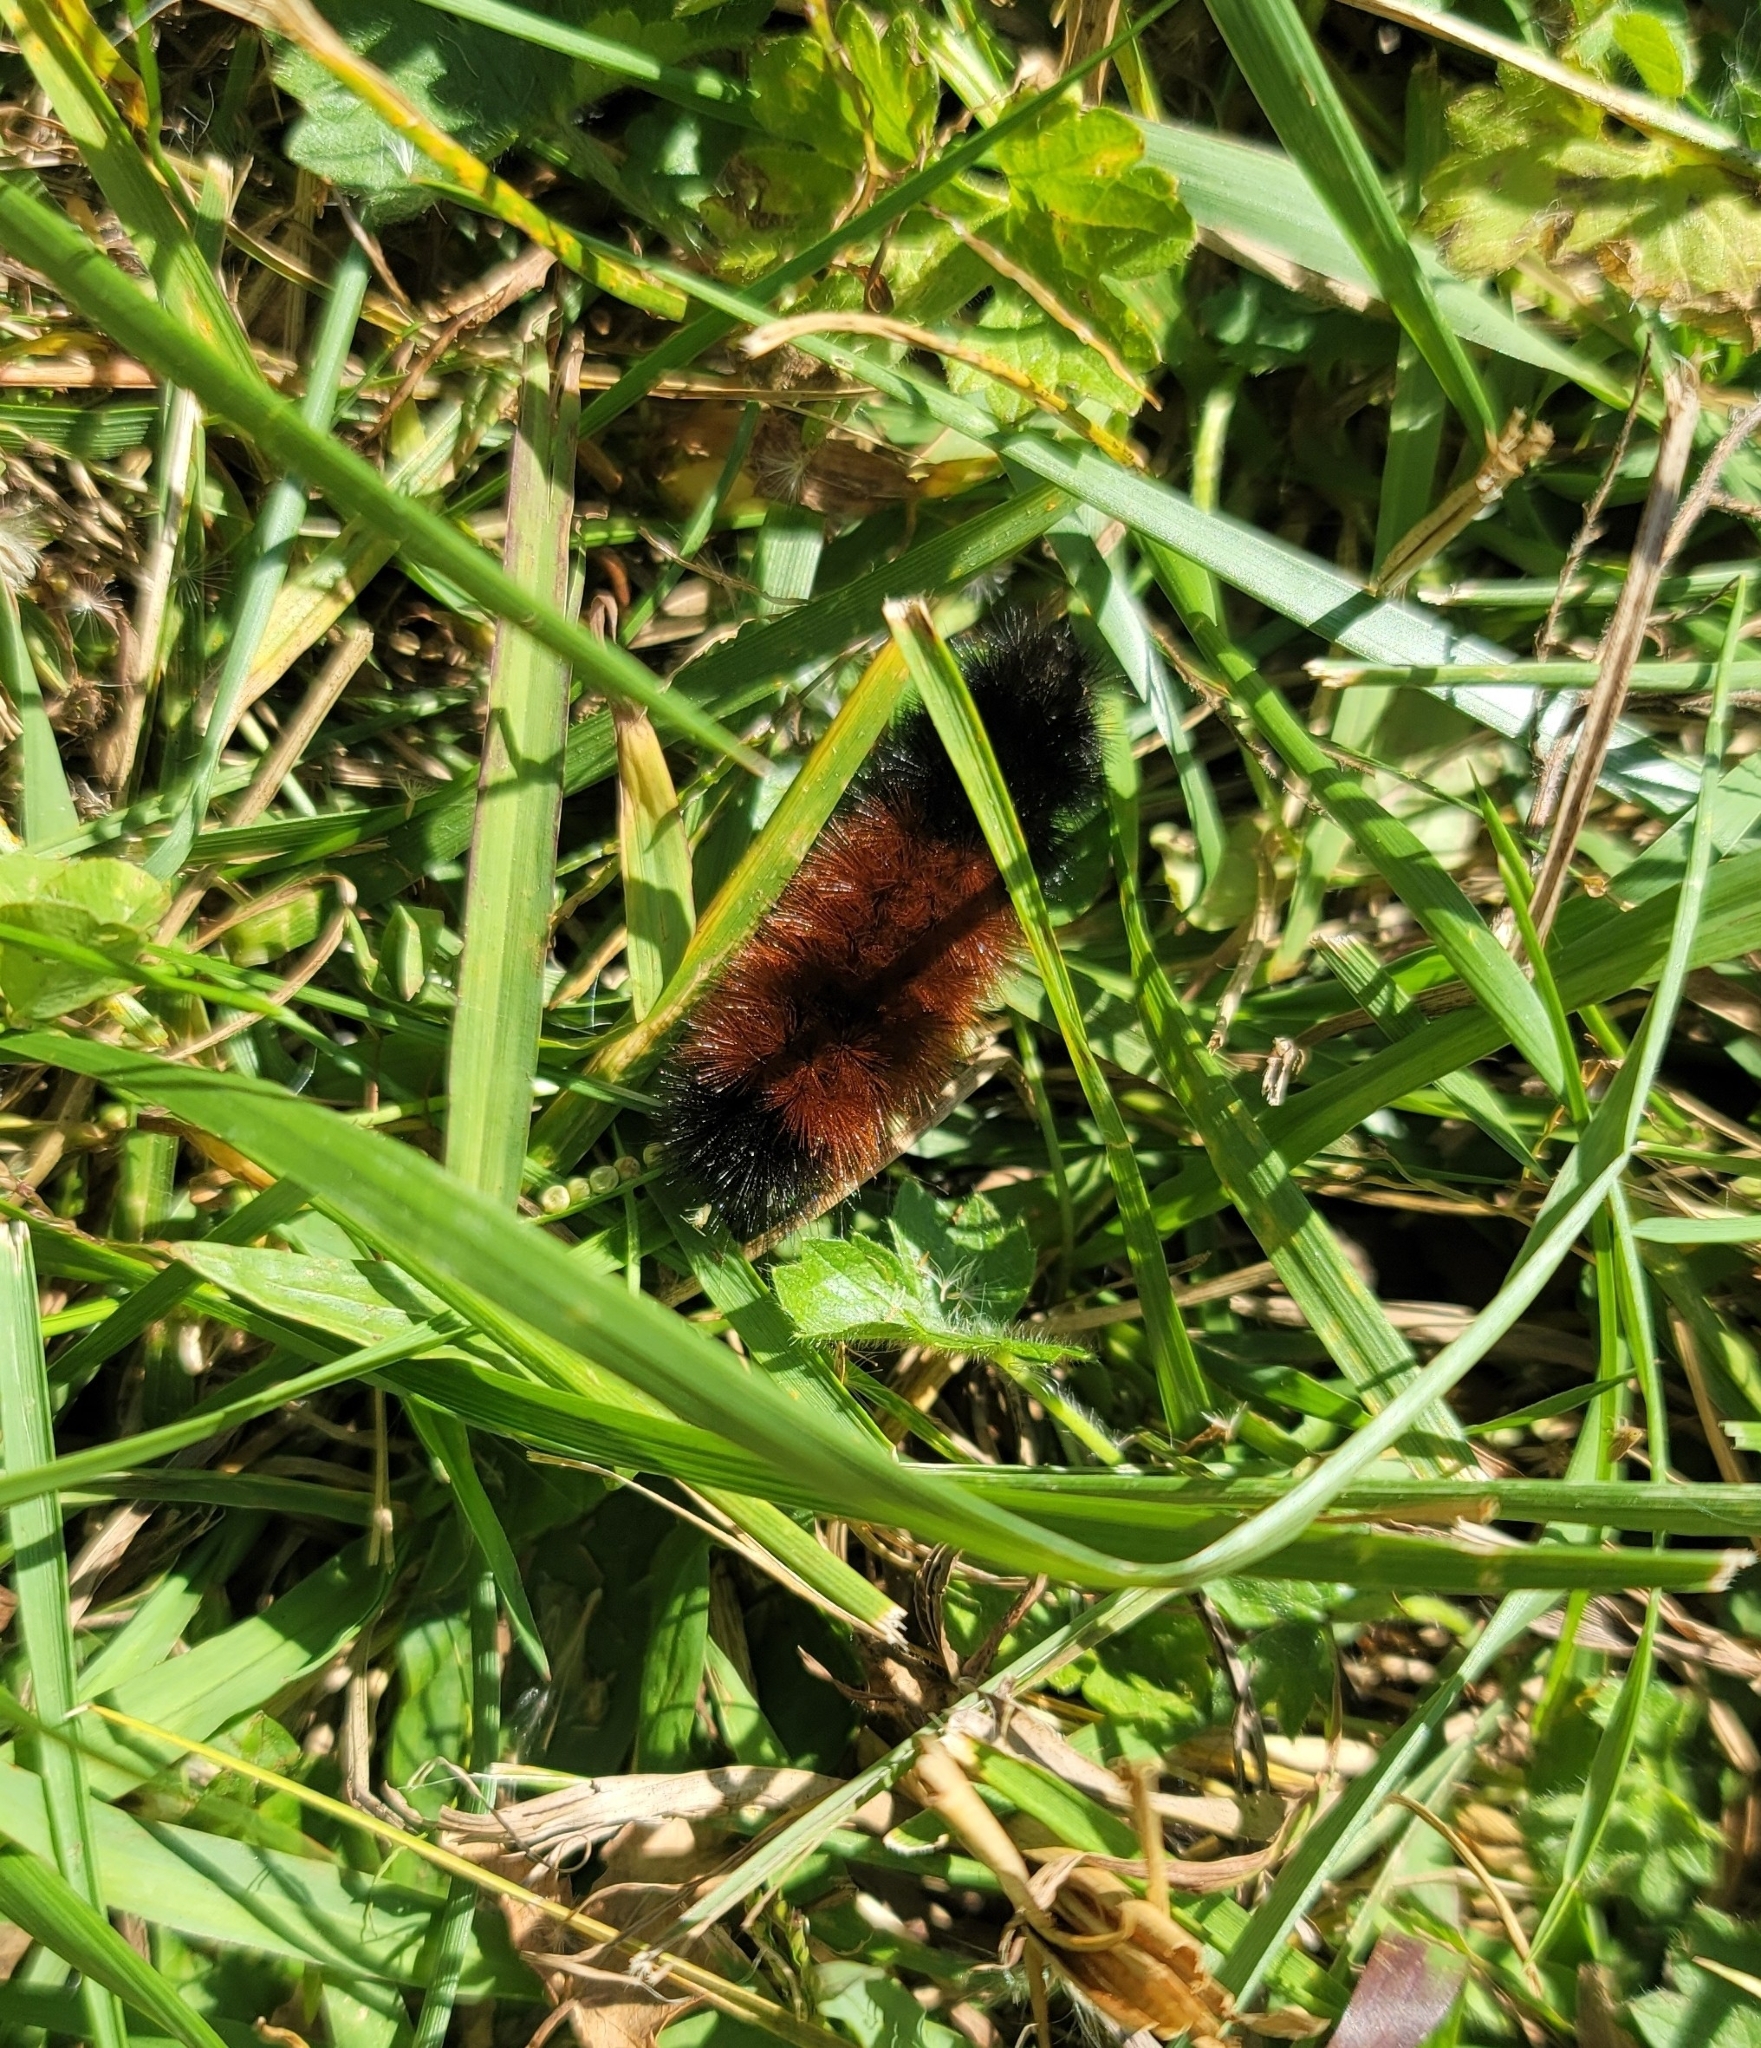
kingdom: Animalia
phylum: Arthropoda
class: Insecta
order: Lepidoptera
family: Erebidae
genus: Pyrrharctia
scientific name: Pyrrharctia isabella
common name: Isabella tiger moth
